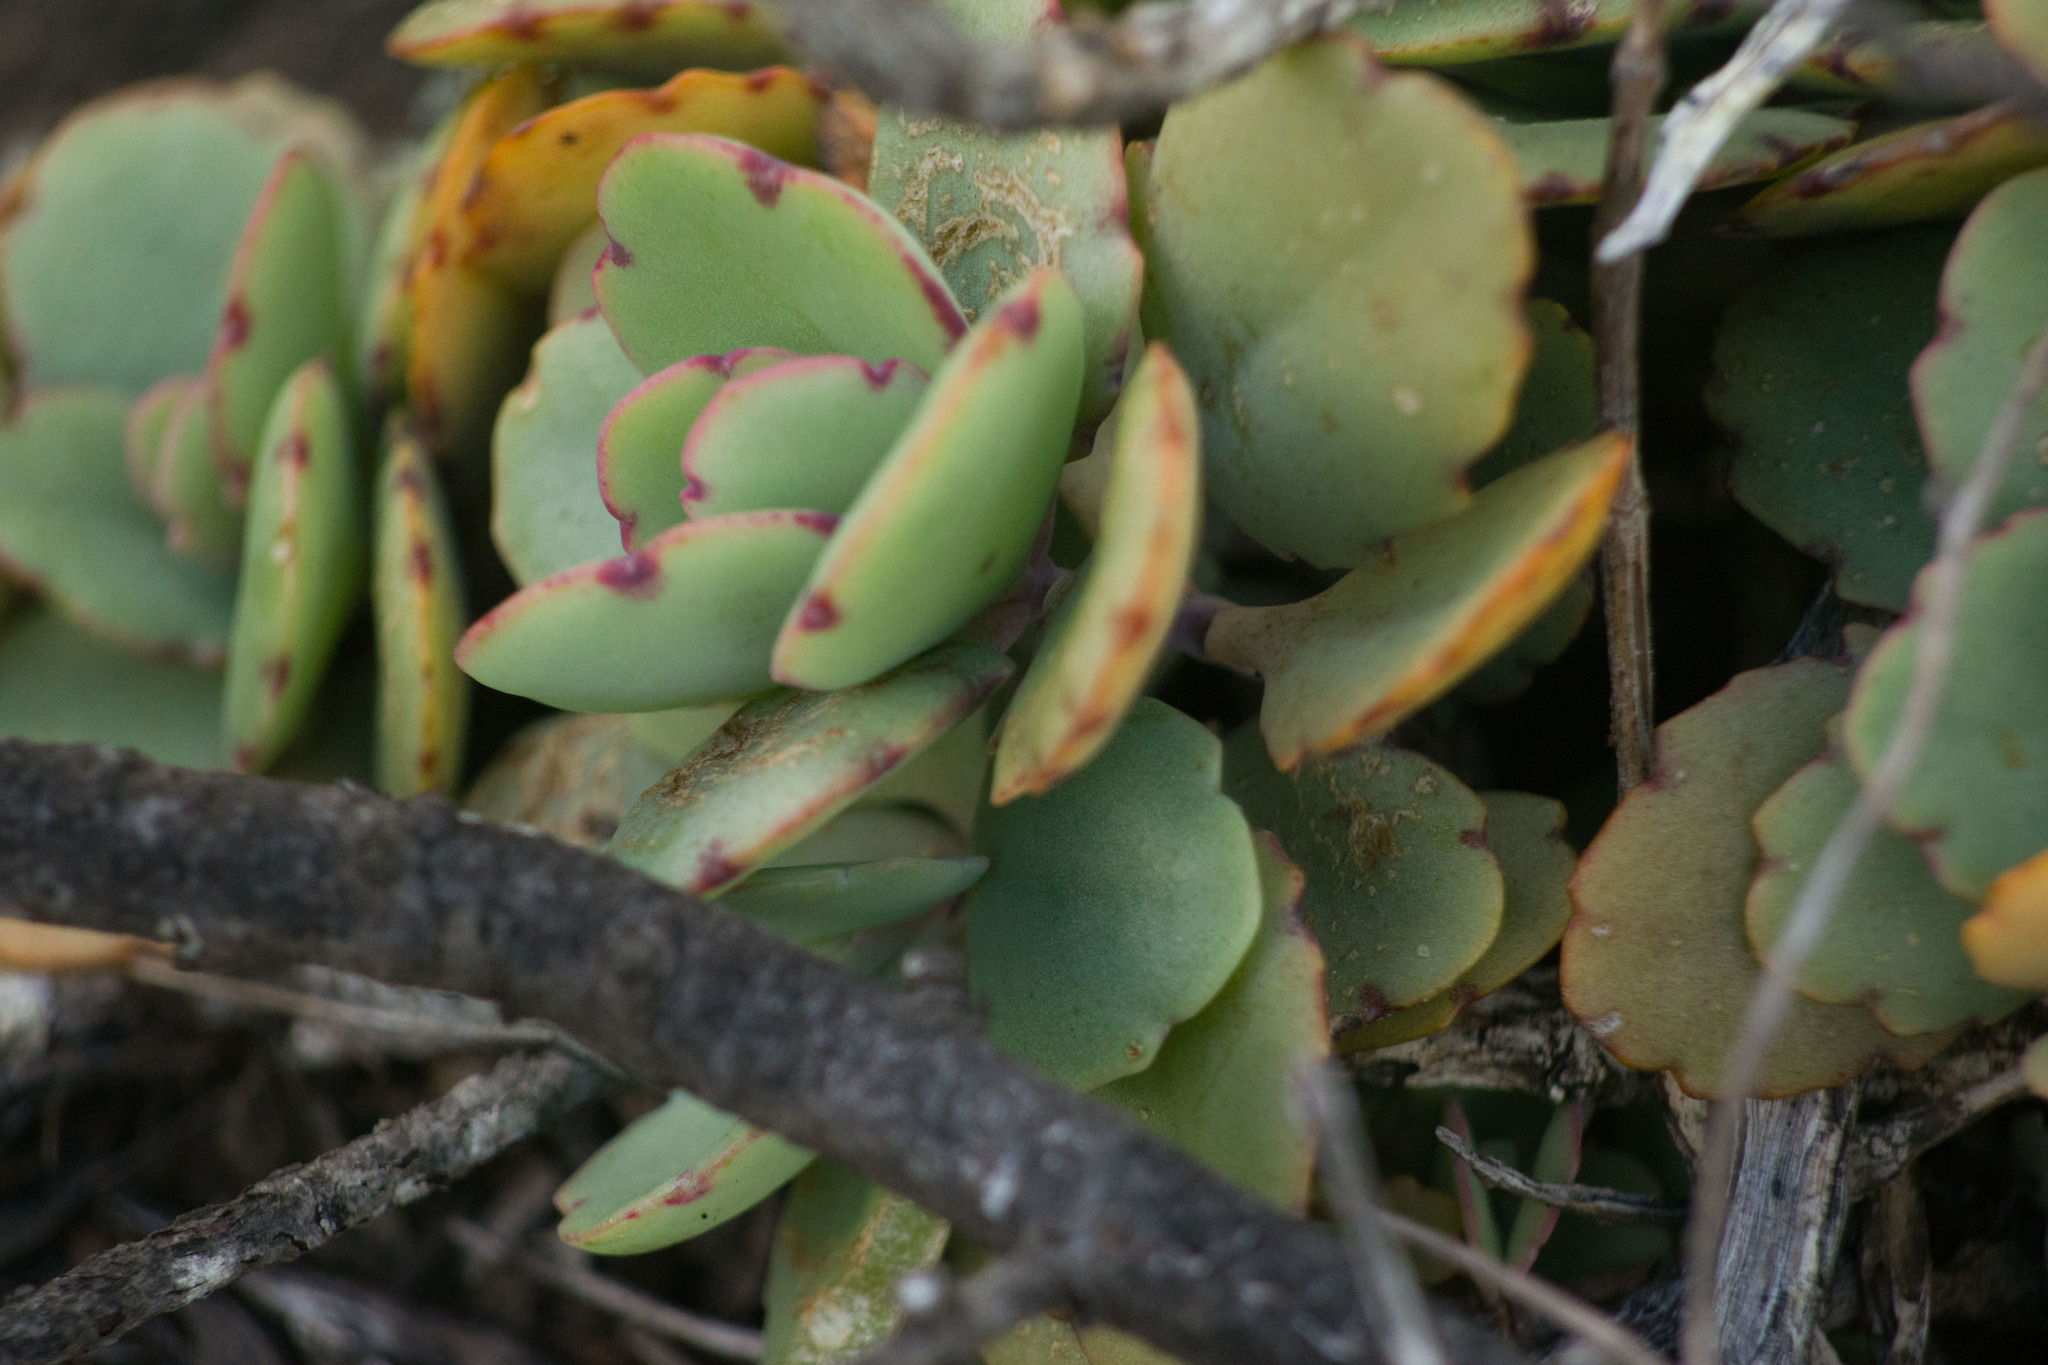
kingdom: Plantae
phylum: Tracheophyta
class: Magnoliopsida
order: Saxifragales
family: Crassulaceae
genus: Kalanchoe
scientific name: Kalanchoe fedtschenkoi
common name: Lavender scallops
